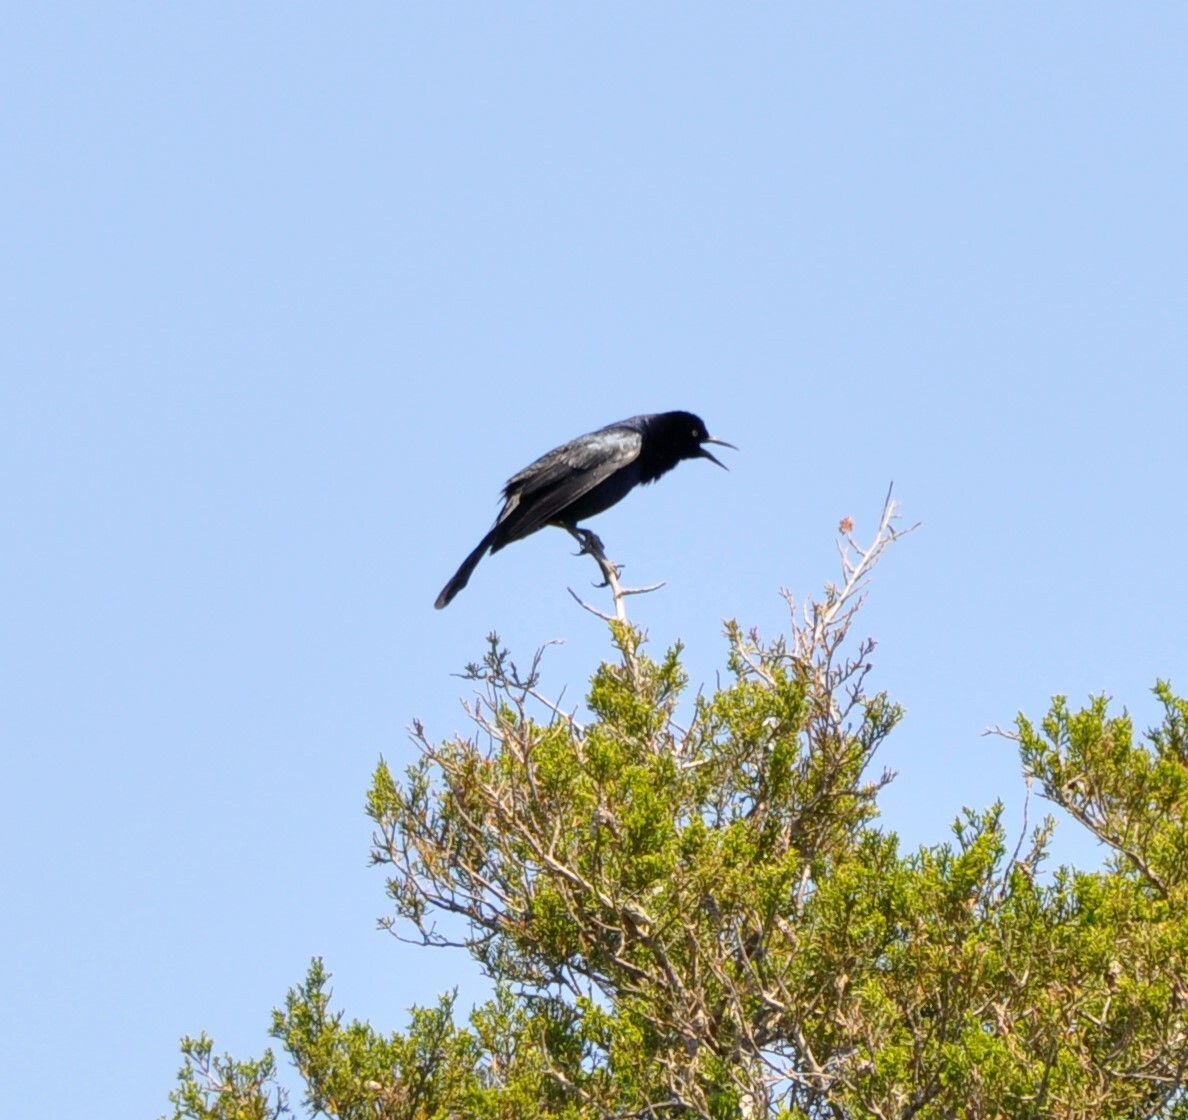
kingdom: Animalia
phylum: Chordata
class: Aves
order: Passeriformes
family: Icteridae
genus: Quiscalus
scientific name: Quiscalus major
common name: Boat-tailed grackle
